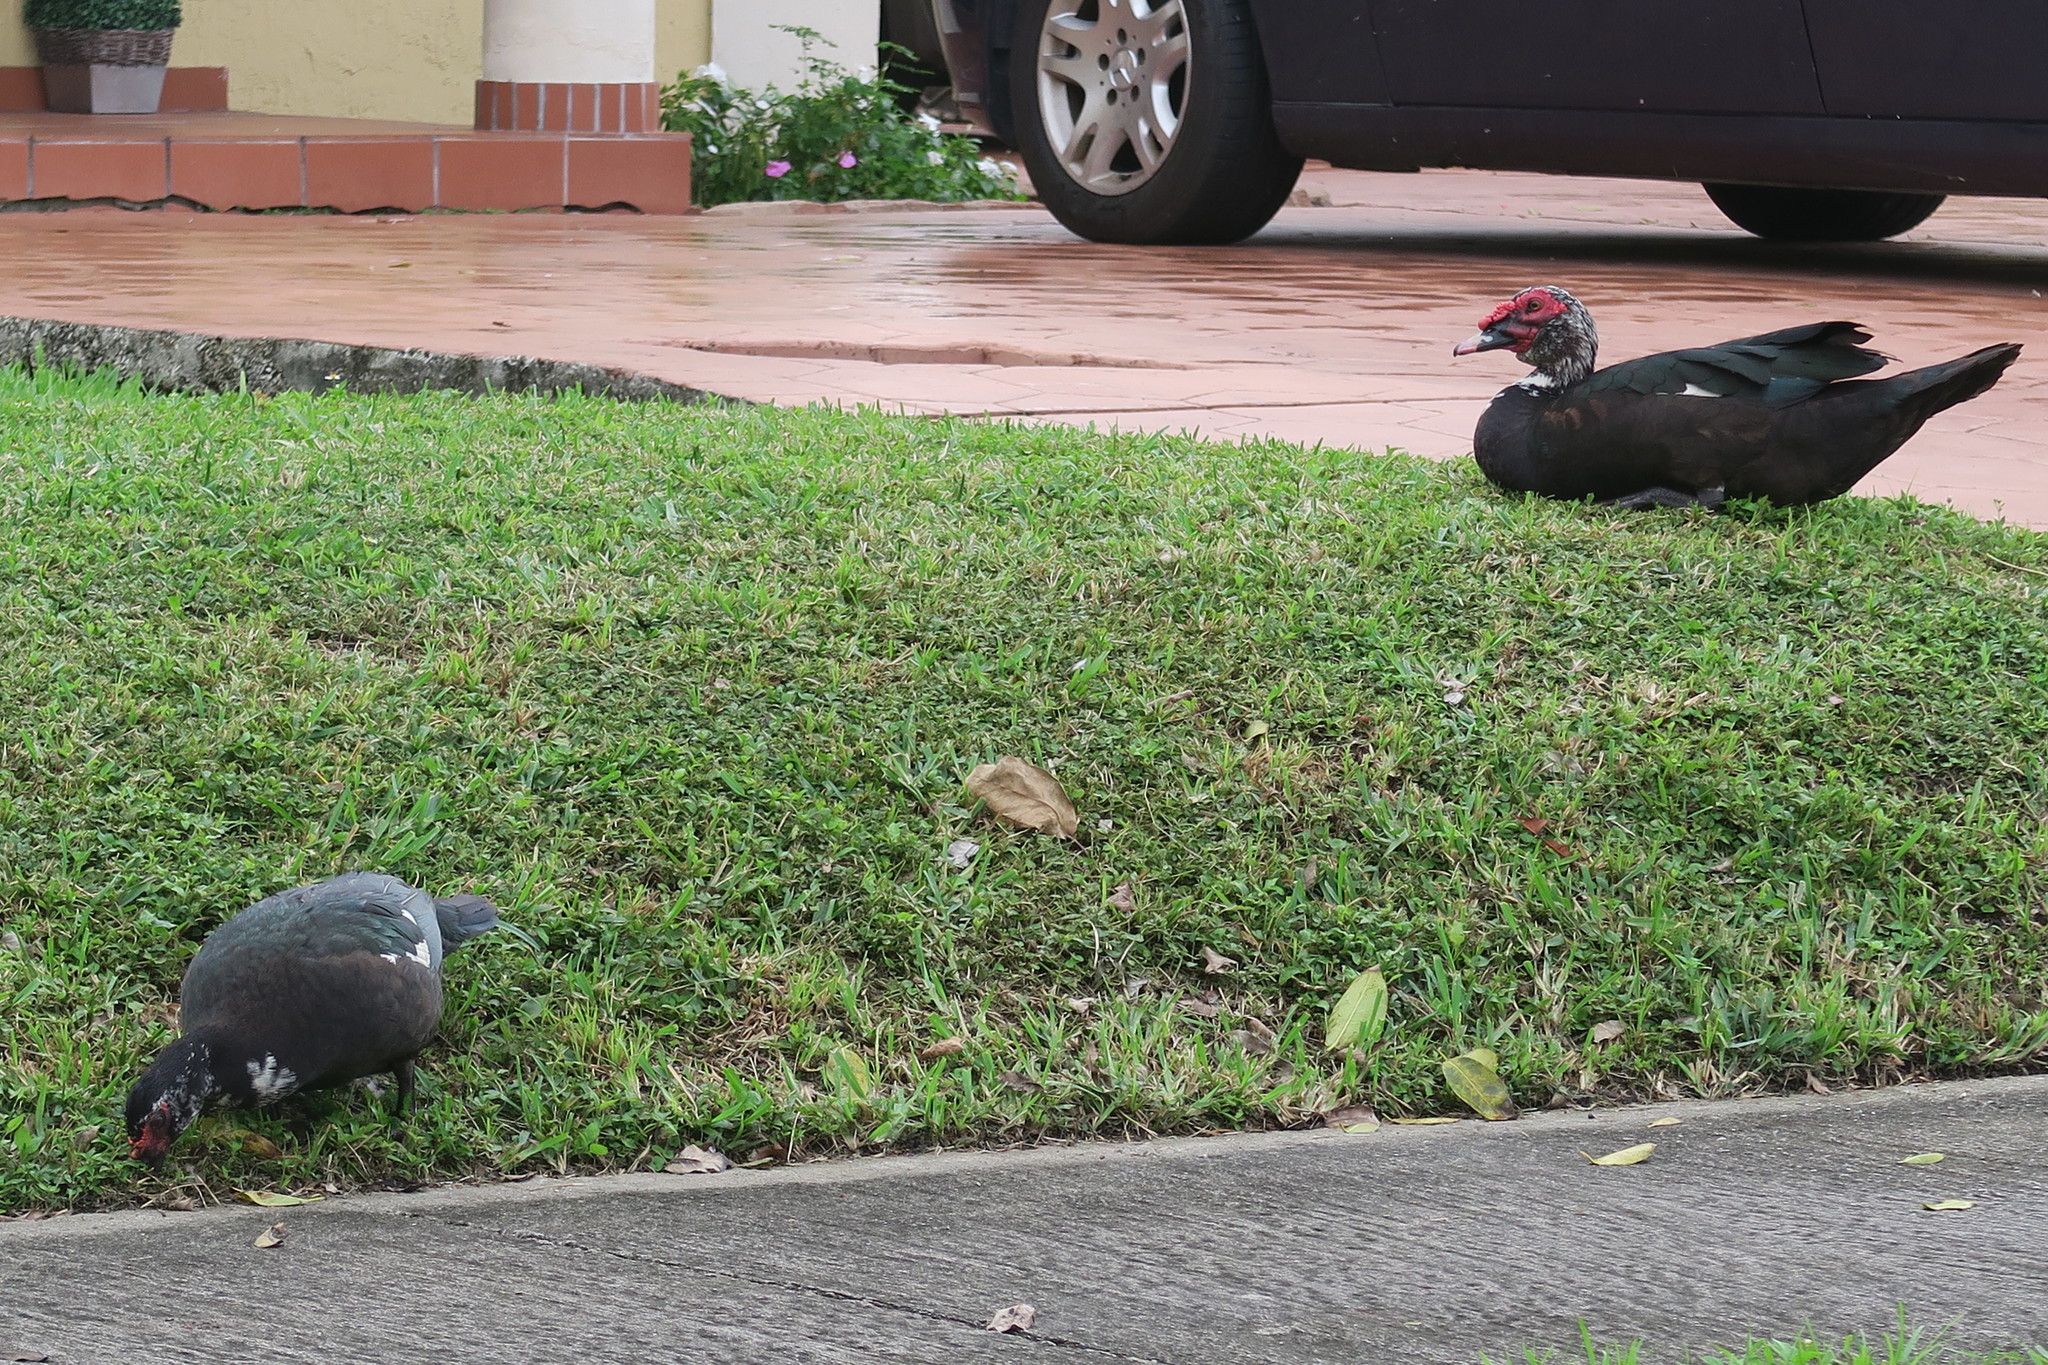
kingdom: Animalia
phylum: Chordata
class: Aves
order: Anseriformes
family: Anatidae
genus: Cairina
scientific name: Cairina moschata
